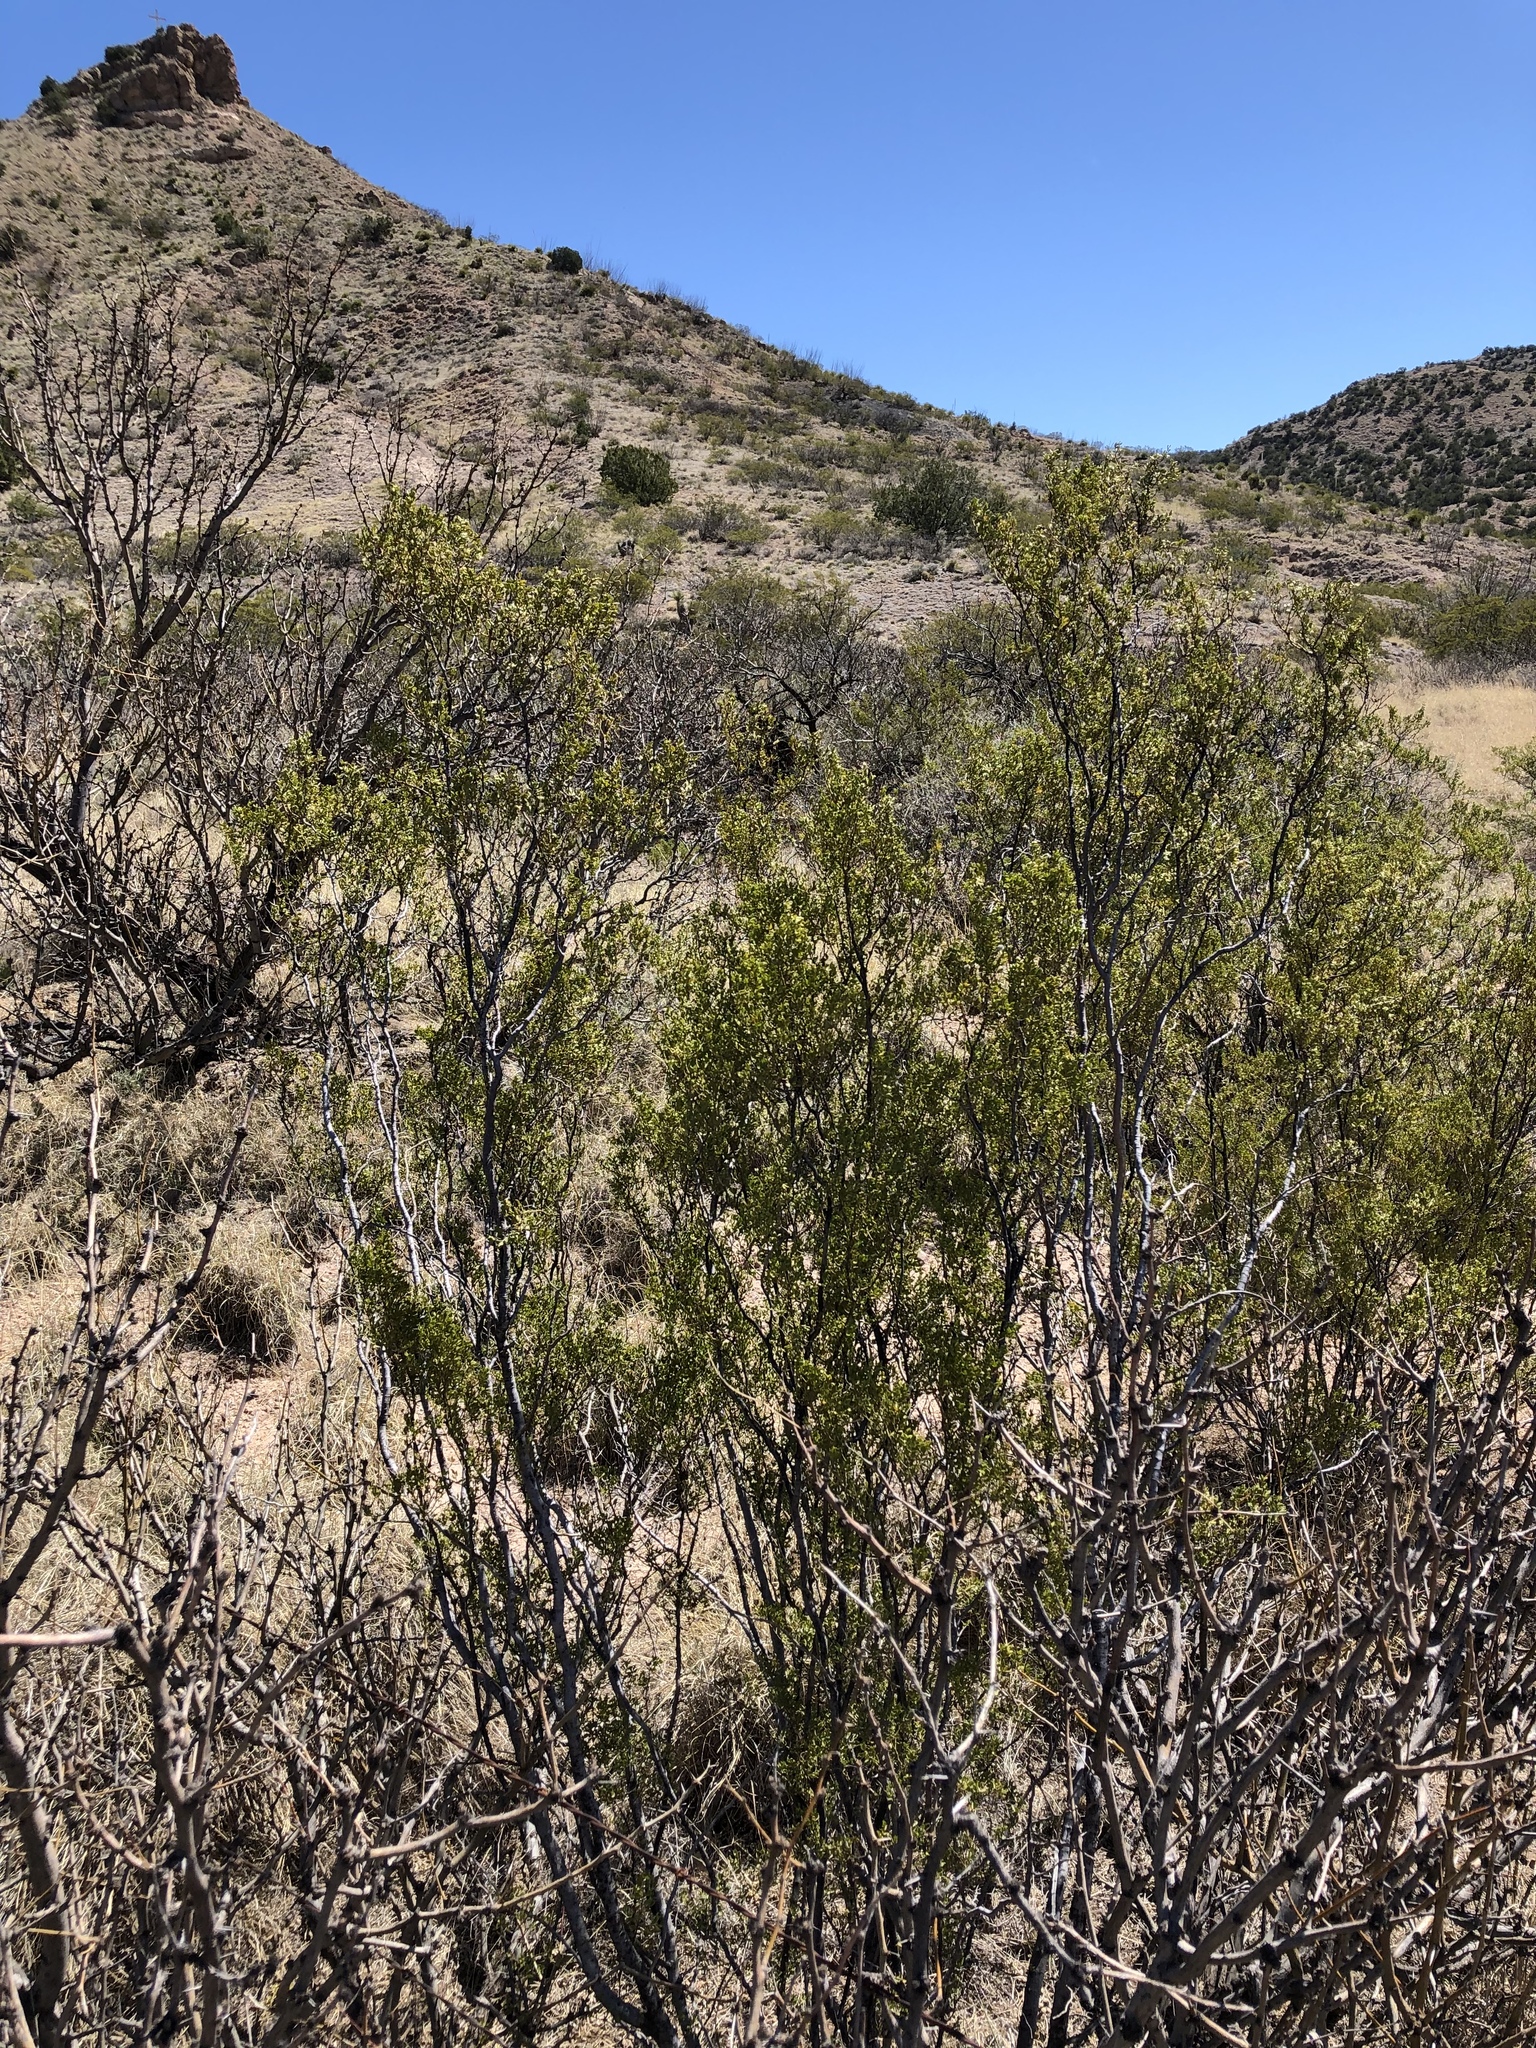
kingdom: Plantae
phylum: Tracheophyta
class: Magnoliopsida
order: Zygophyllales
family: Zygophyllaceae
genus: Larrea
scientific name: Larrea tridentata
